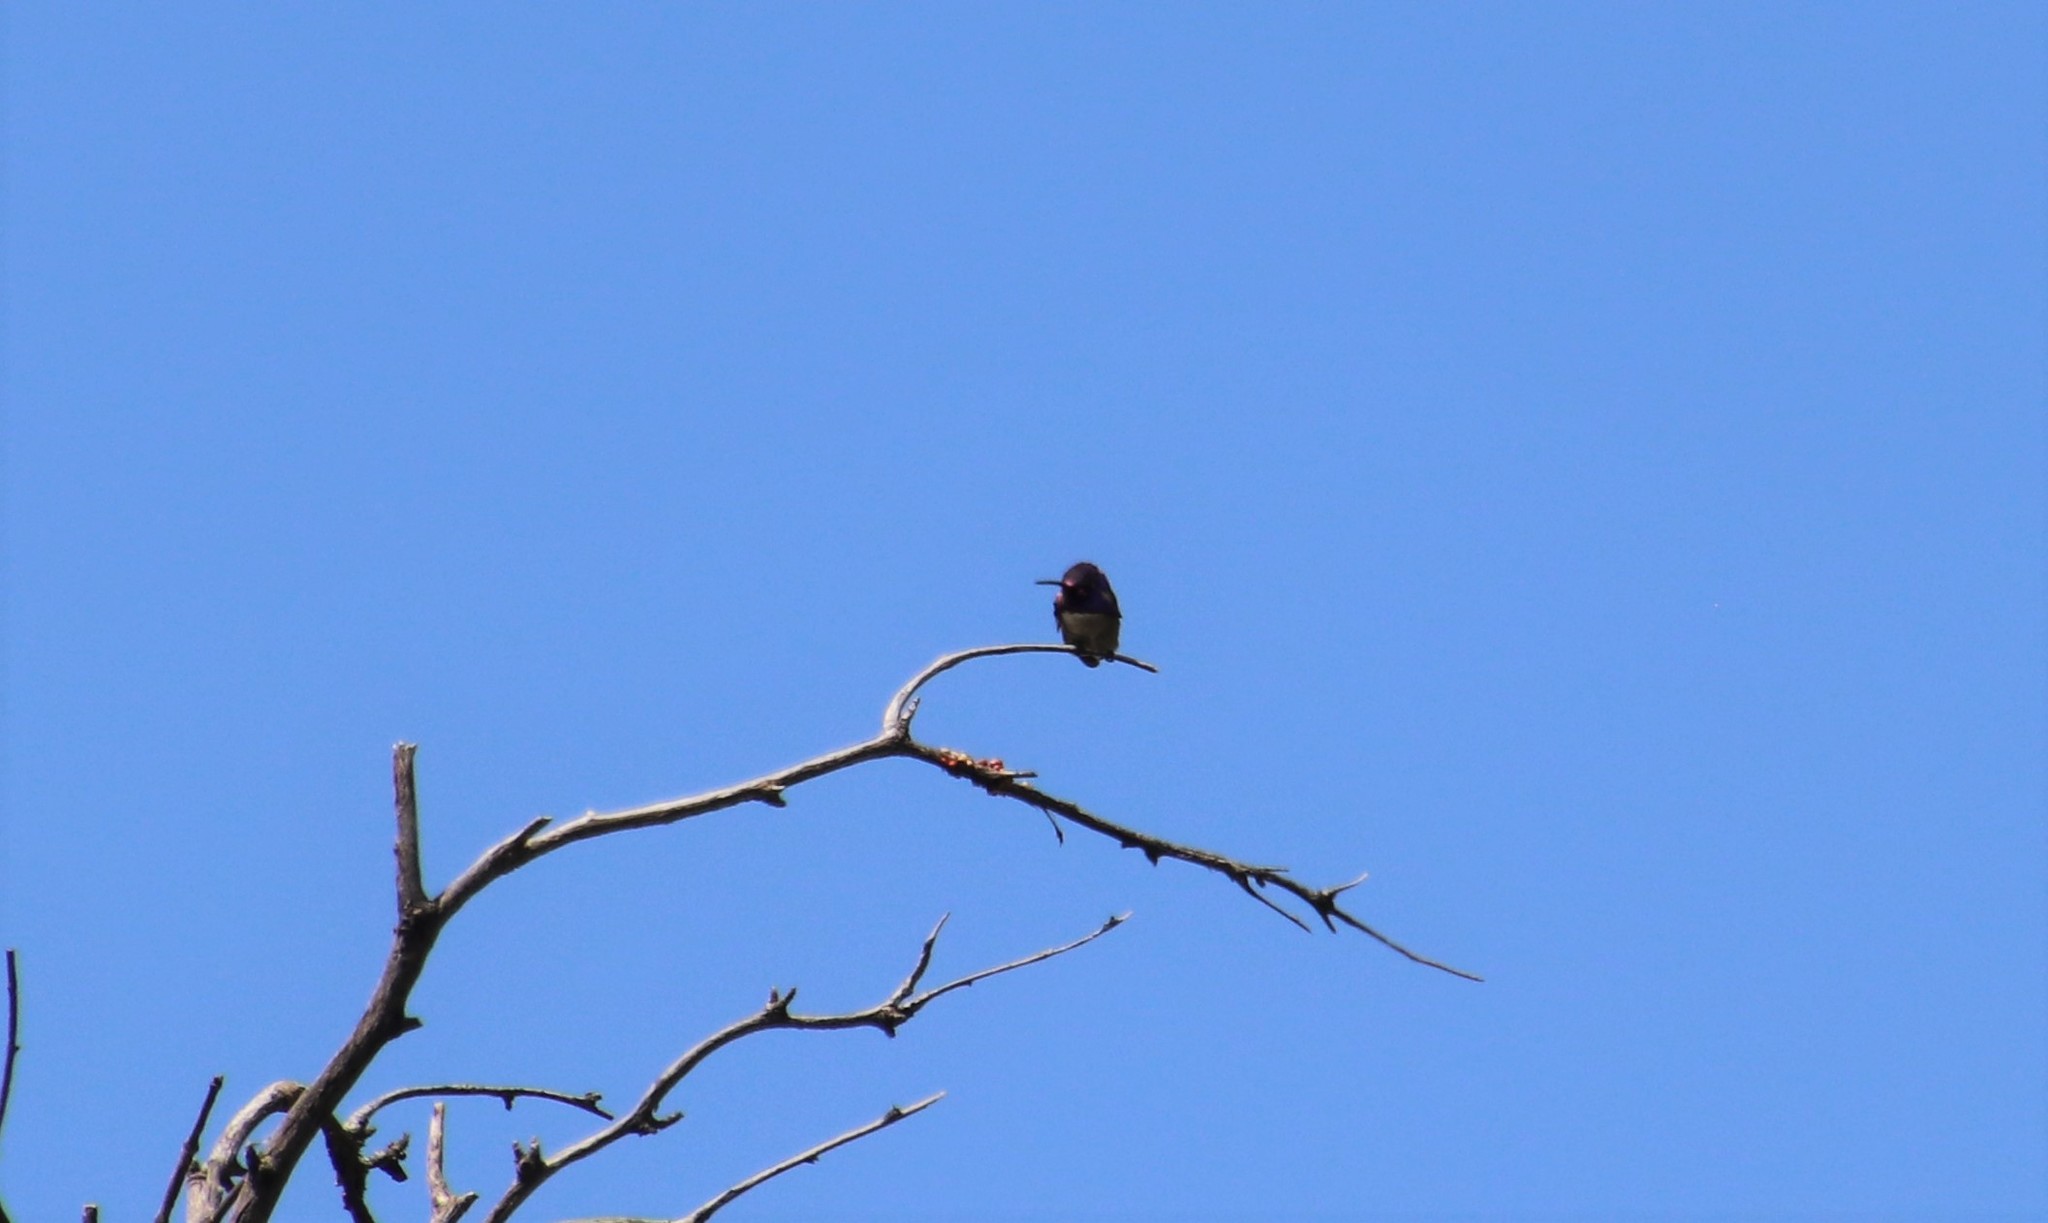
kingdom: Animalia
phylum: Chordata
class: Aves
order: Apodiformes
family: Trochilidae
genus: Calypte
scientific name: Calypte costae
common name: Costa's hummingbird
